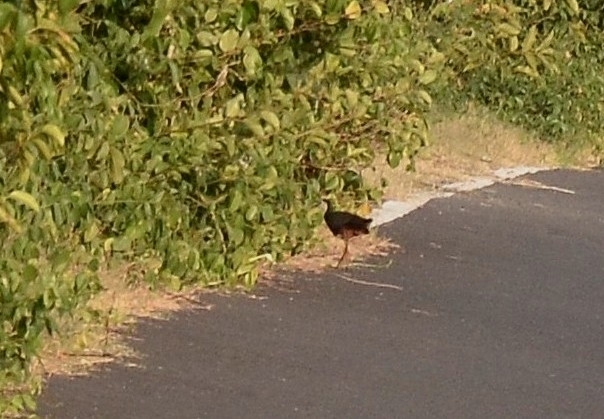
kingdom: Animalia
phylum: Chordata
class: Aves
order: Gruiformes
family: Rallidae
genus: Amaurornis
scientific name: Amaurornis phoenicurus
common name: White-breasted waterhen
